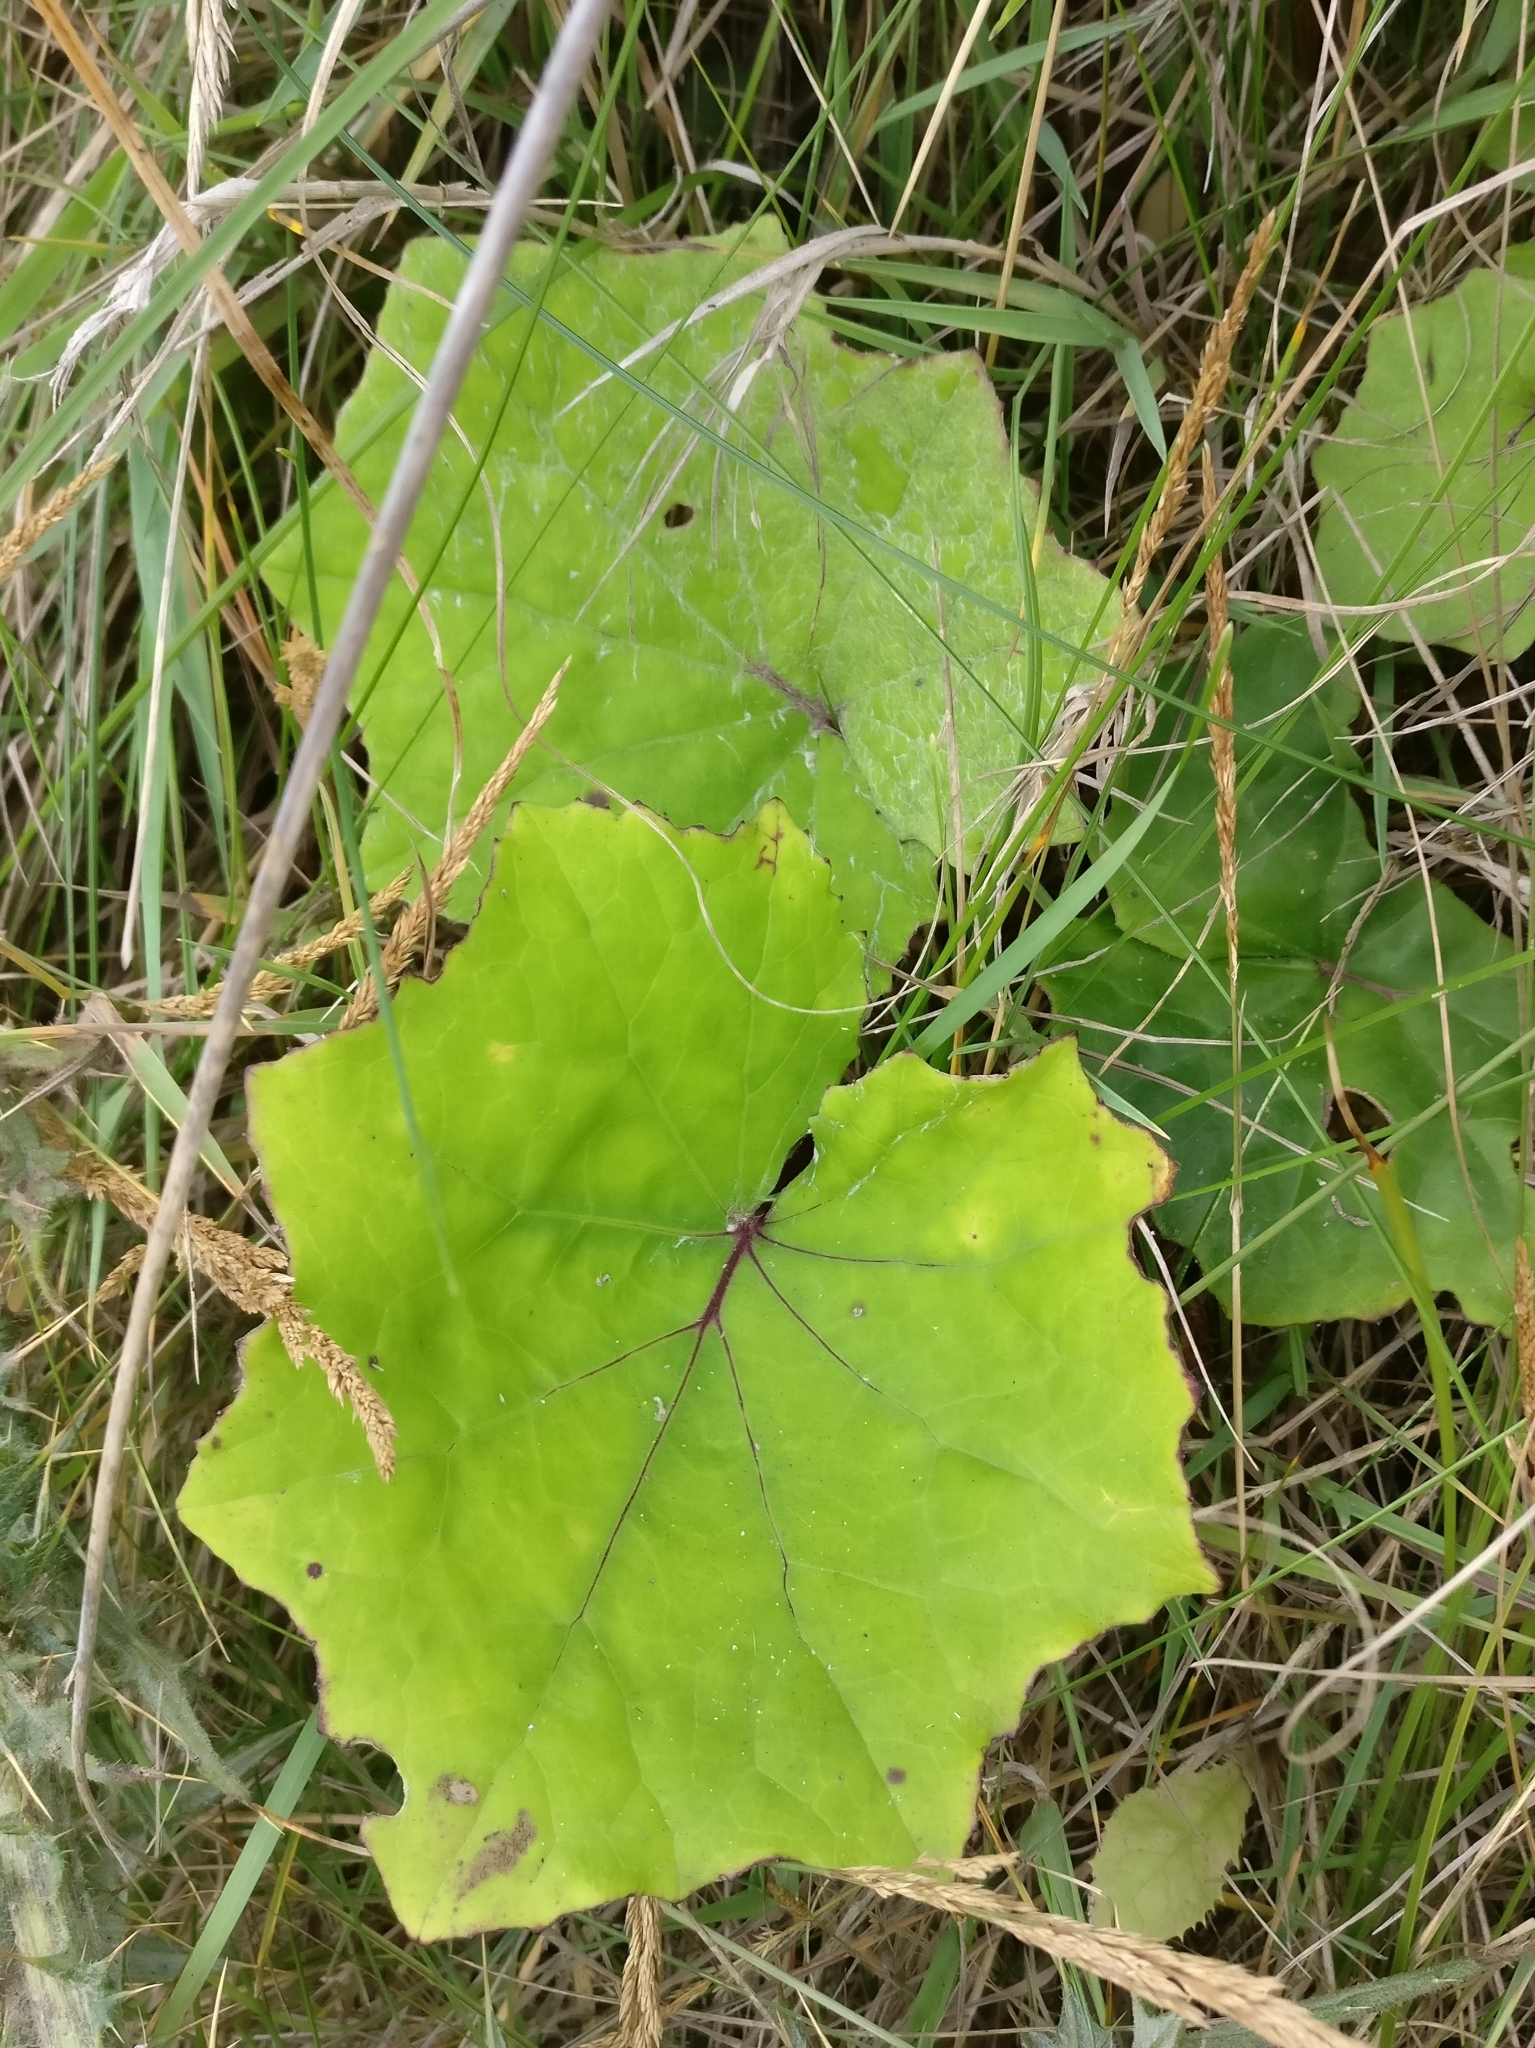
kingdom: Plantae
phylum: Tracheophyta
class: Magnoliopsida
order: Asterales
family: Asteraceae
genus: Tussilago
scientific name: Tussilago farfara
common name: Coltsfoot
